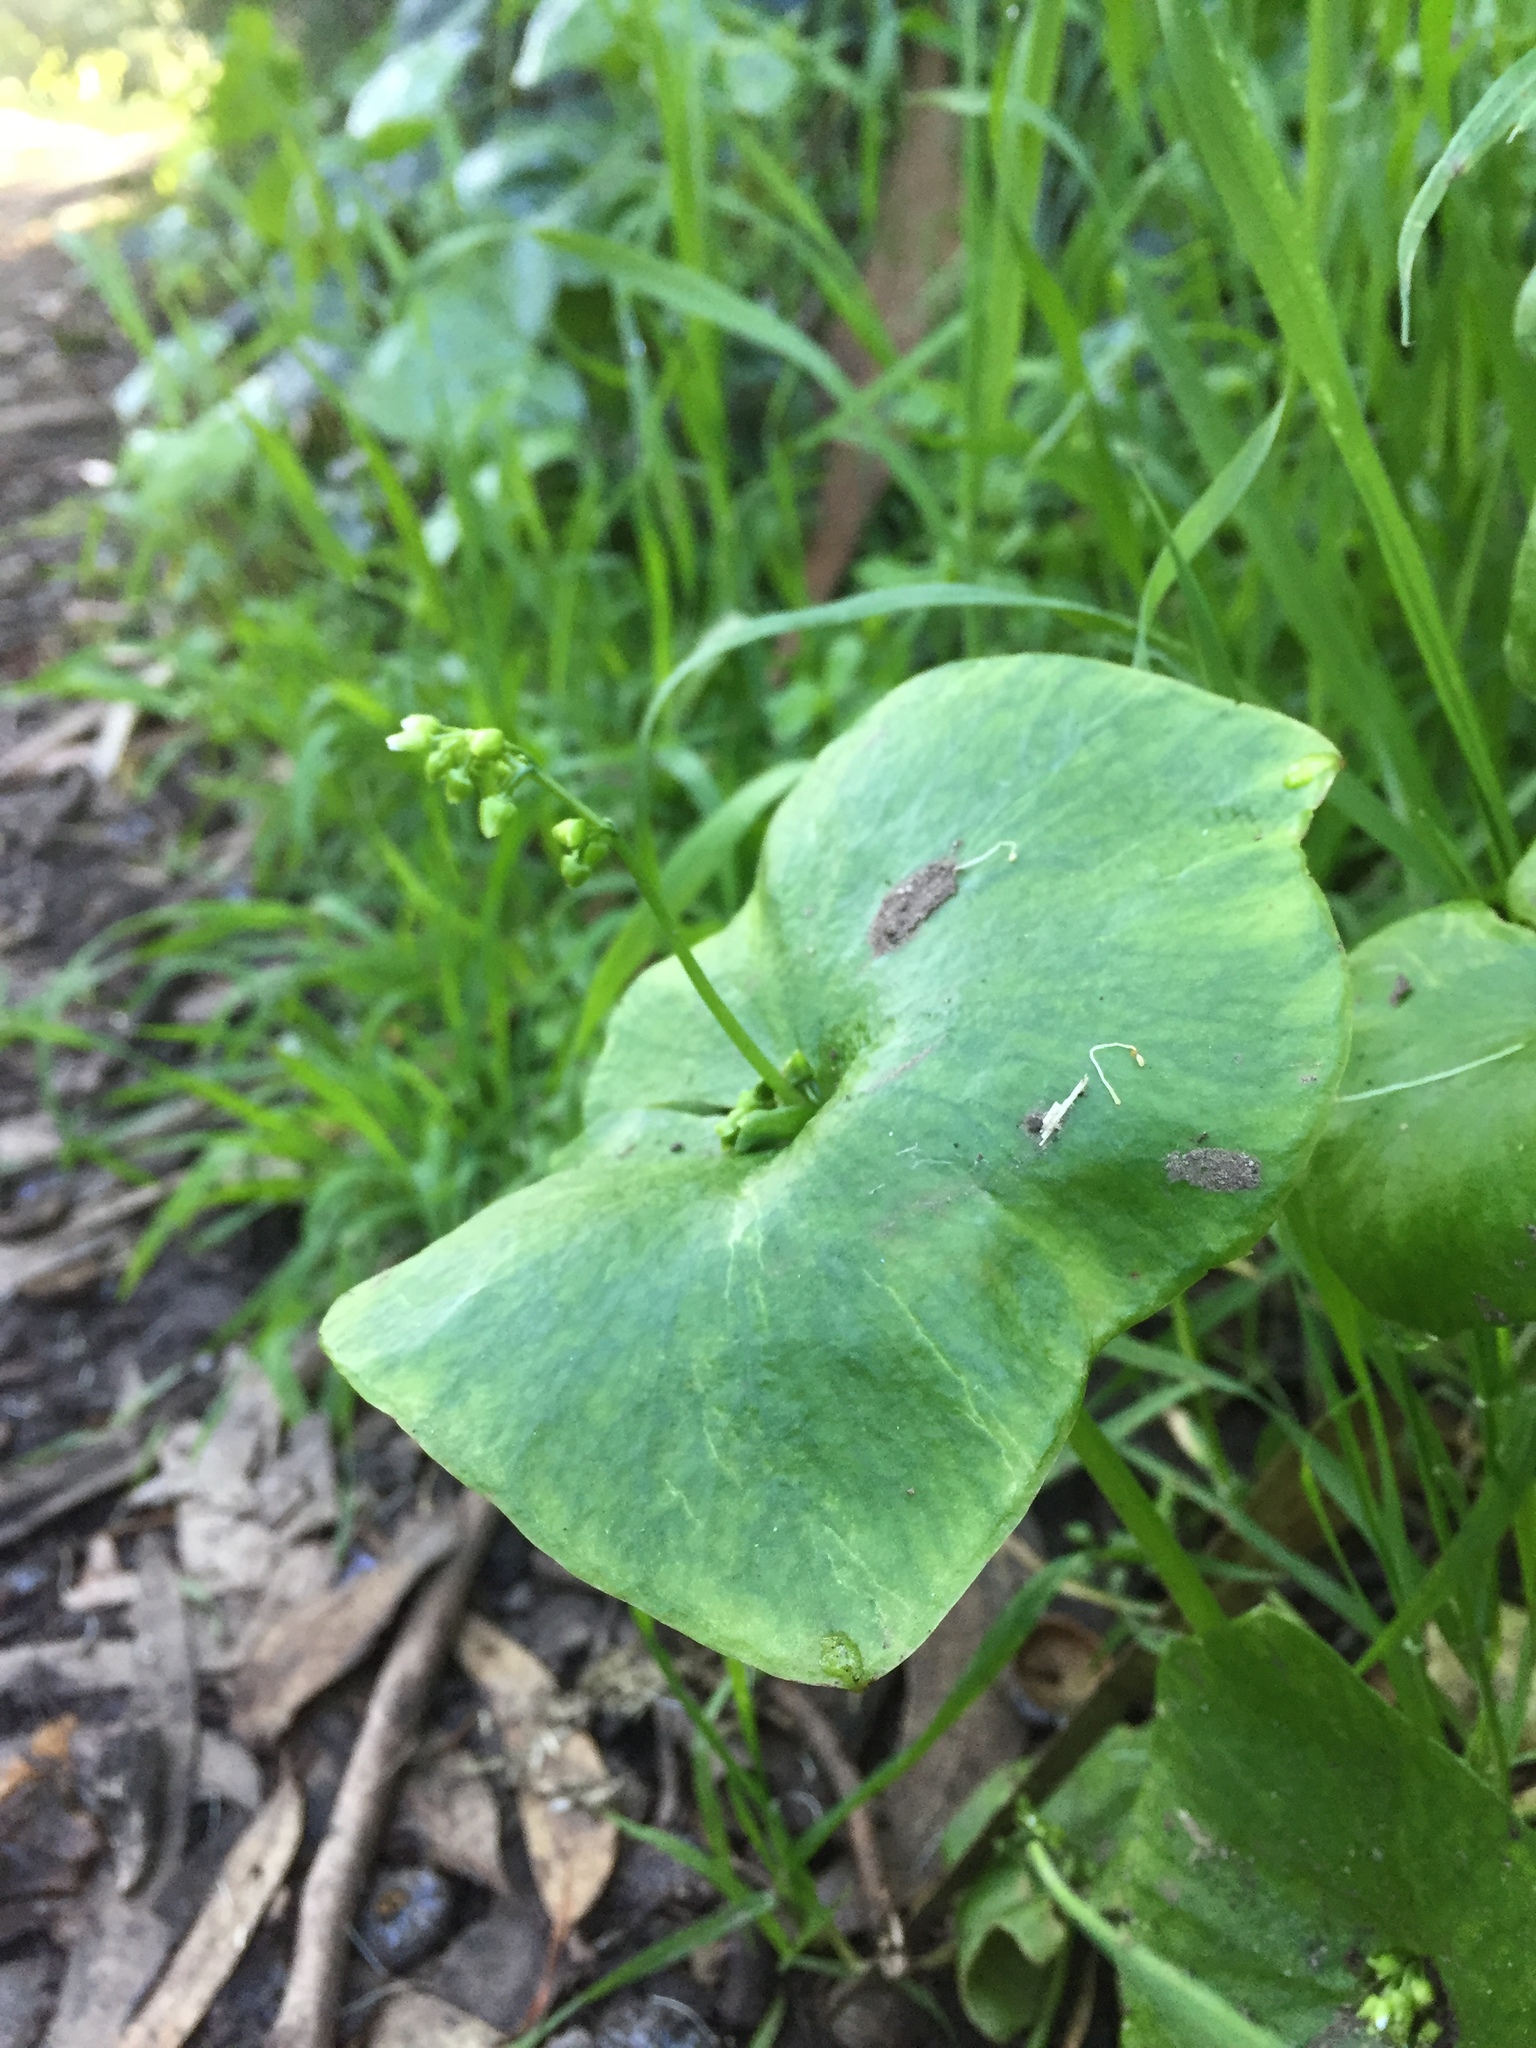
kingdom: Plantae
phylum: Tracheophyta
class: Magnoliopsida
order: Caryophyllales
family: Montiaceae
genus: Claytonia
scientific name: Claytonia perfoliata
